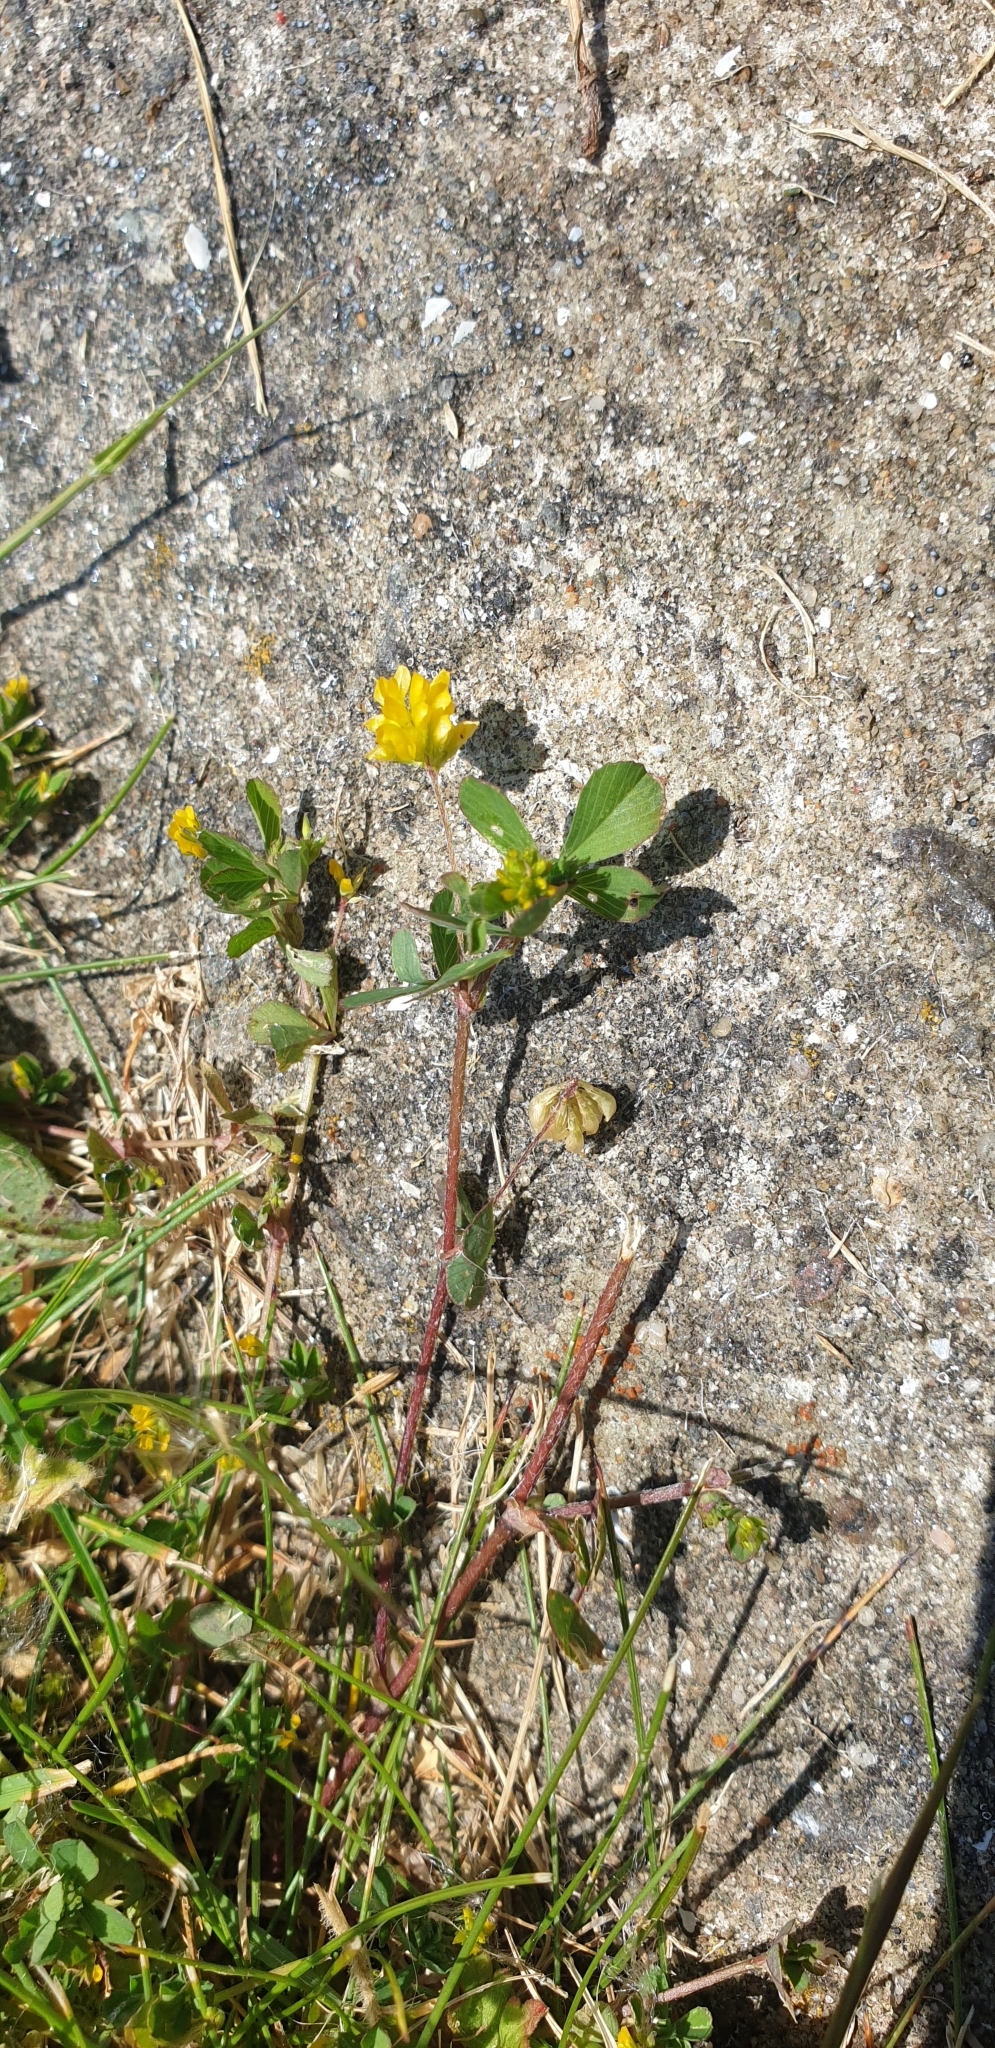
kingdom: Plantae
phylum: Tracheophyta
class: Magnoliopsida
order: Fabales
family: Fabaceae
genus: Trifolium
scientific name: Trifolium dubium
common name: Suckling clover
